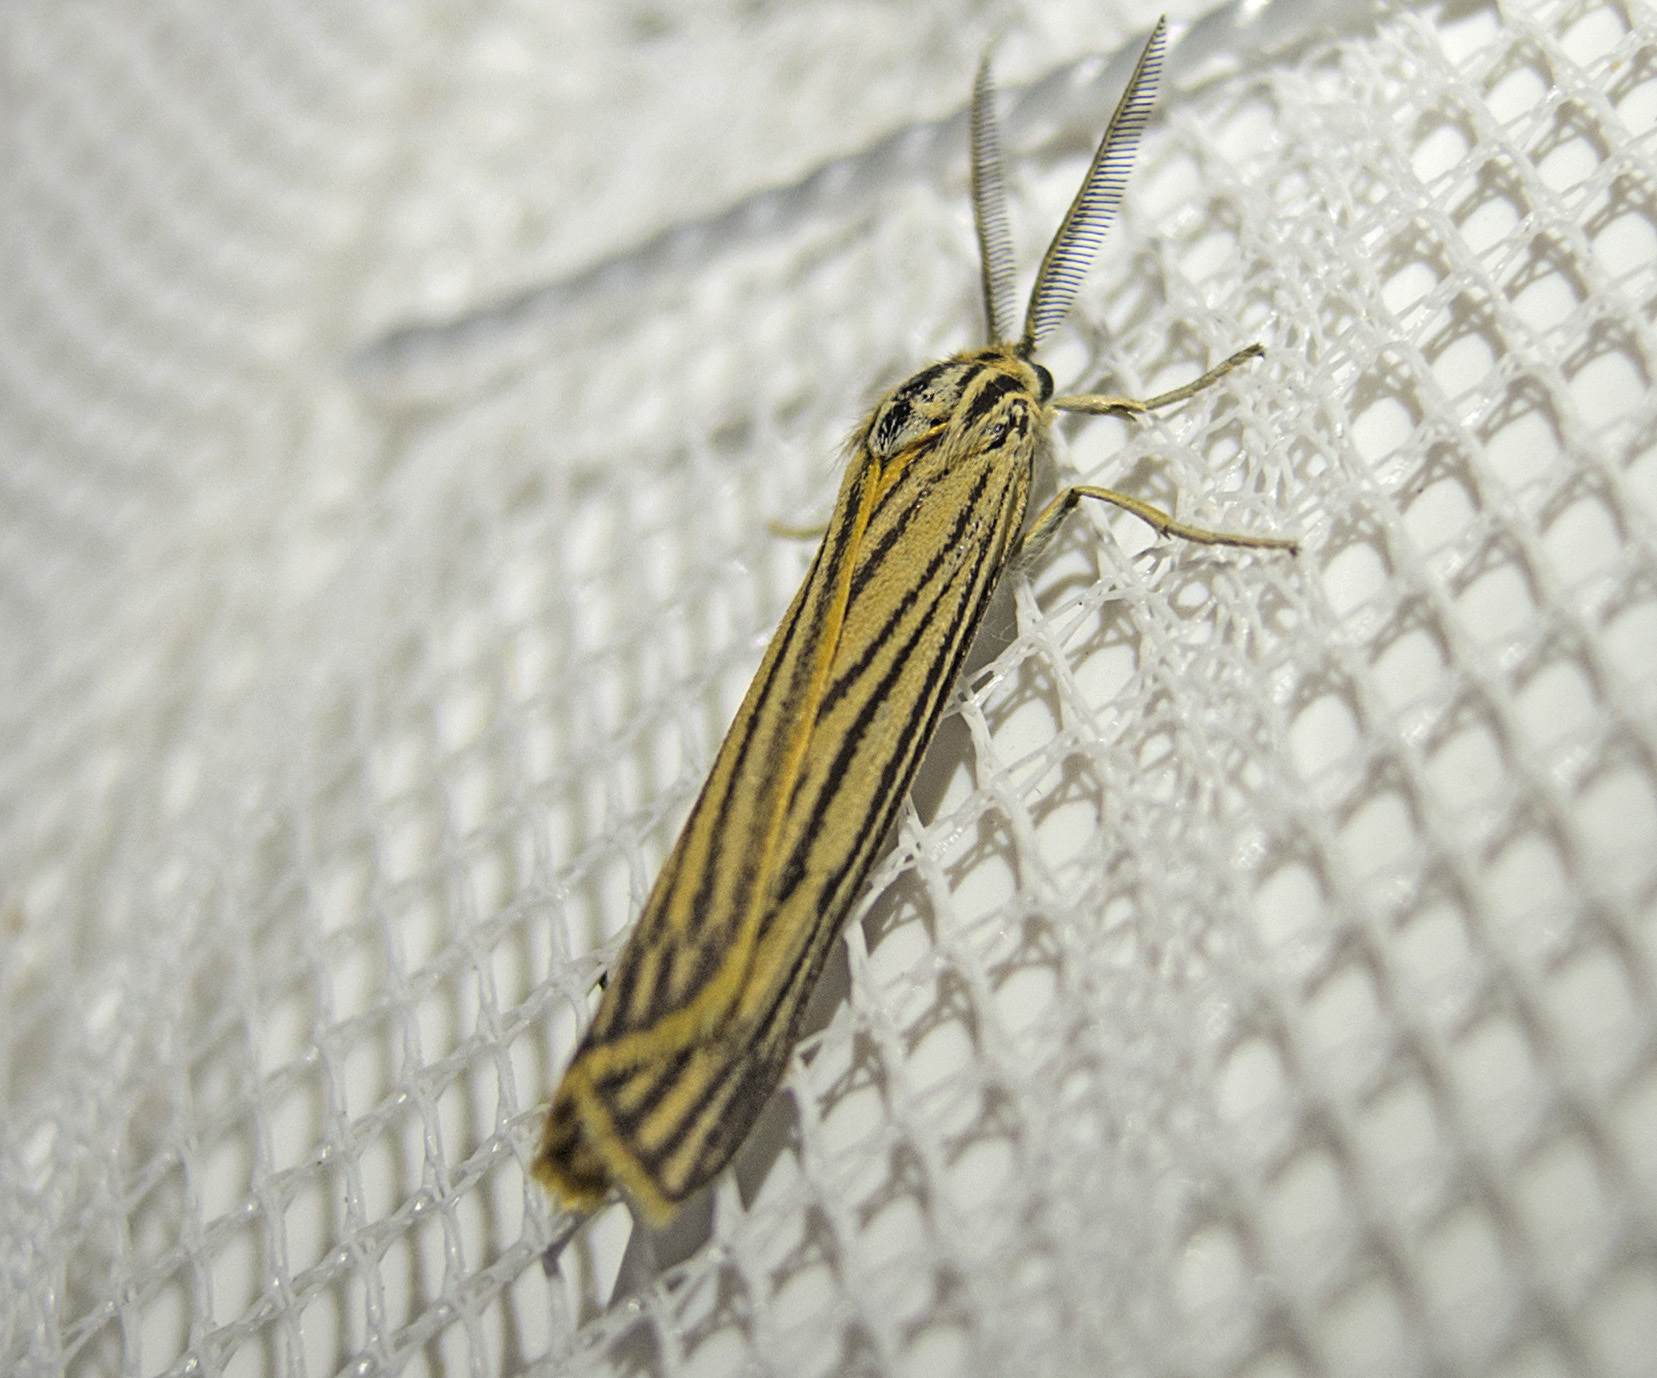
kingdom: Animalia
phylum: Arthropoda
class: Insecta
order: Lepidoptera
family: Erebidae
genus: Coscinia
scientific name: Coscinia Spiris striata
